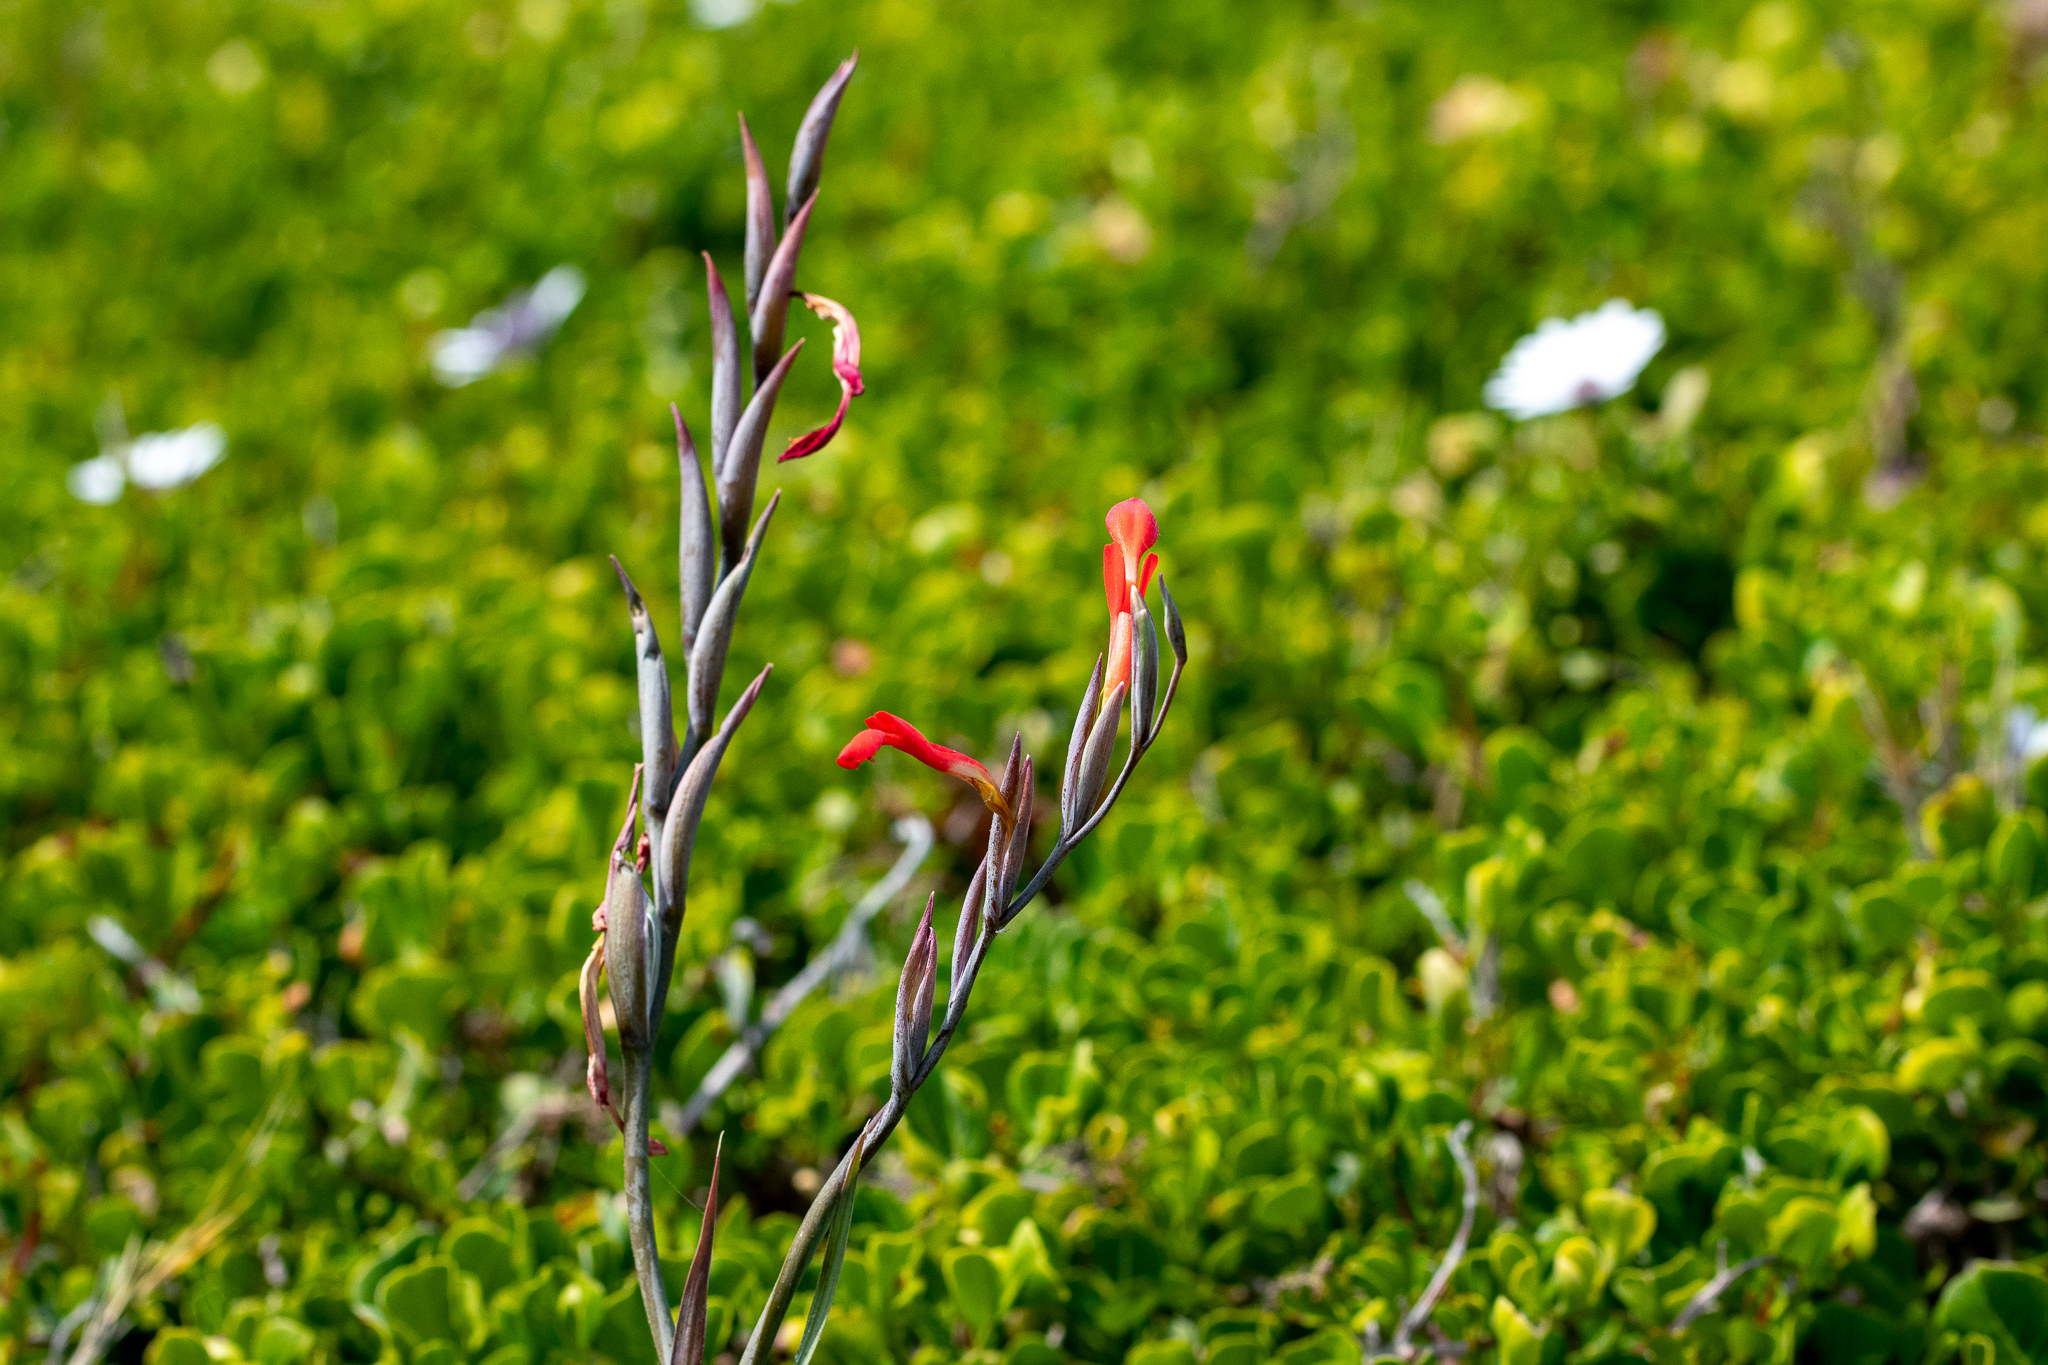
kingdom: Plantae
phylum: Tracheophyta
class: Liliopsida
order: Asparagales
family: Iridaceae
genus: Gladiolus
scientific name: Gladiolus cunonius
